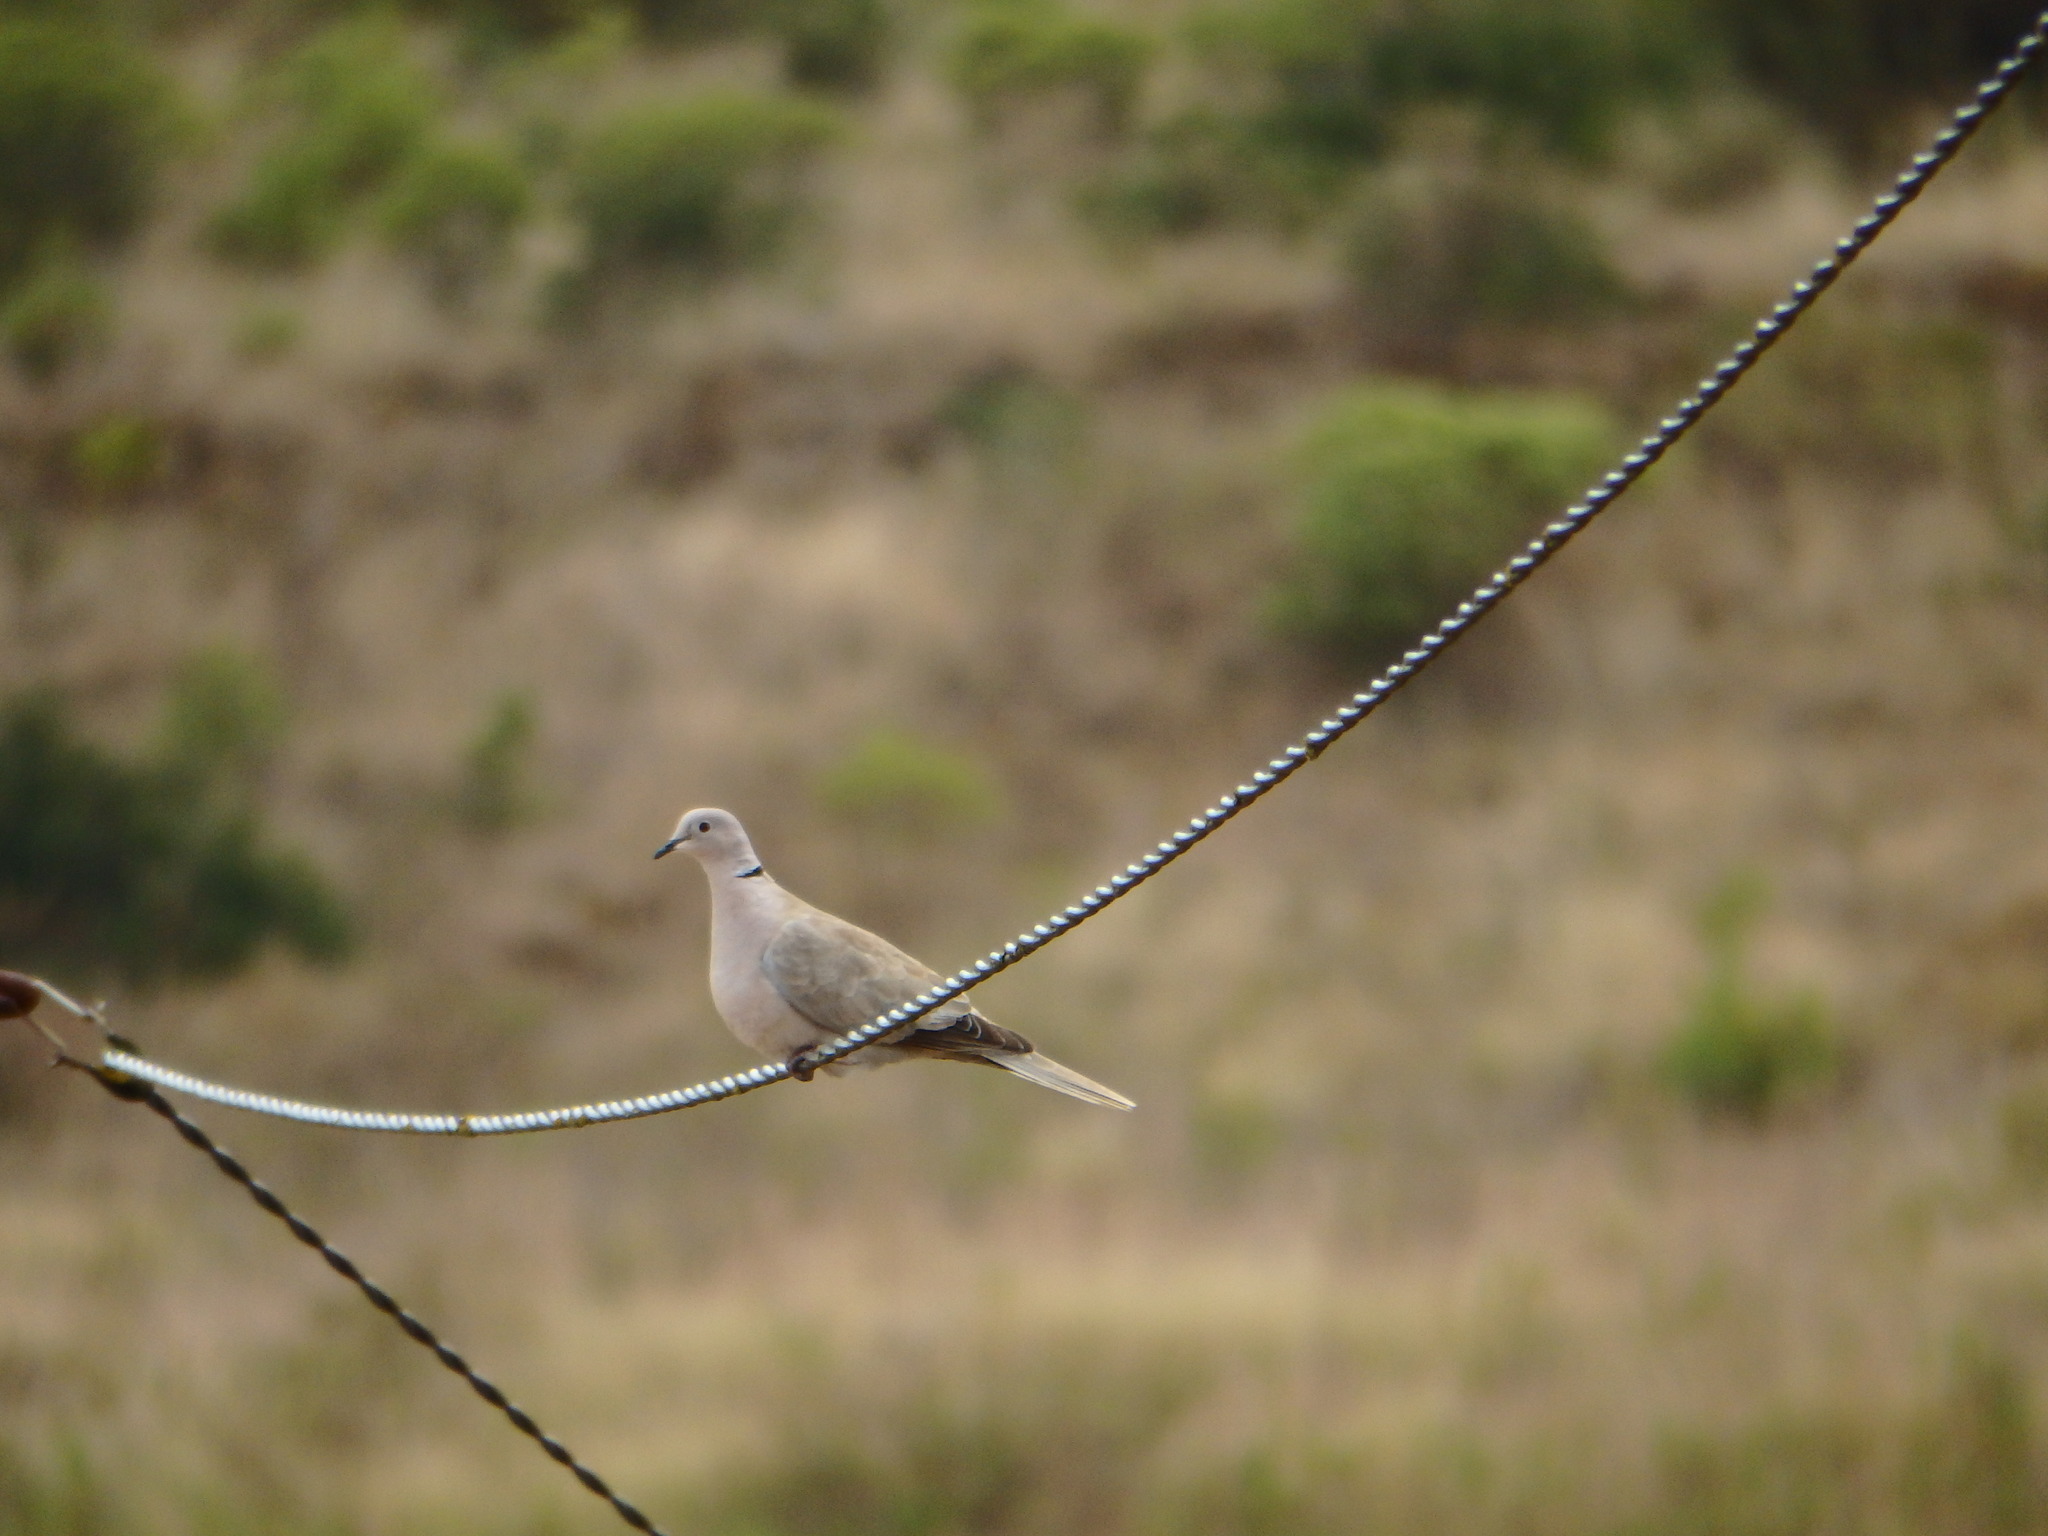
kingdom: Animalia
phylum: Chordata
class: Aves
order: Columbiformes
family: Columbidae
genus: Streptopelia
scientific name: Streptopelia decaocto
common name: Eurasian collared dove
